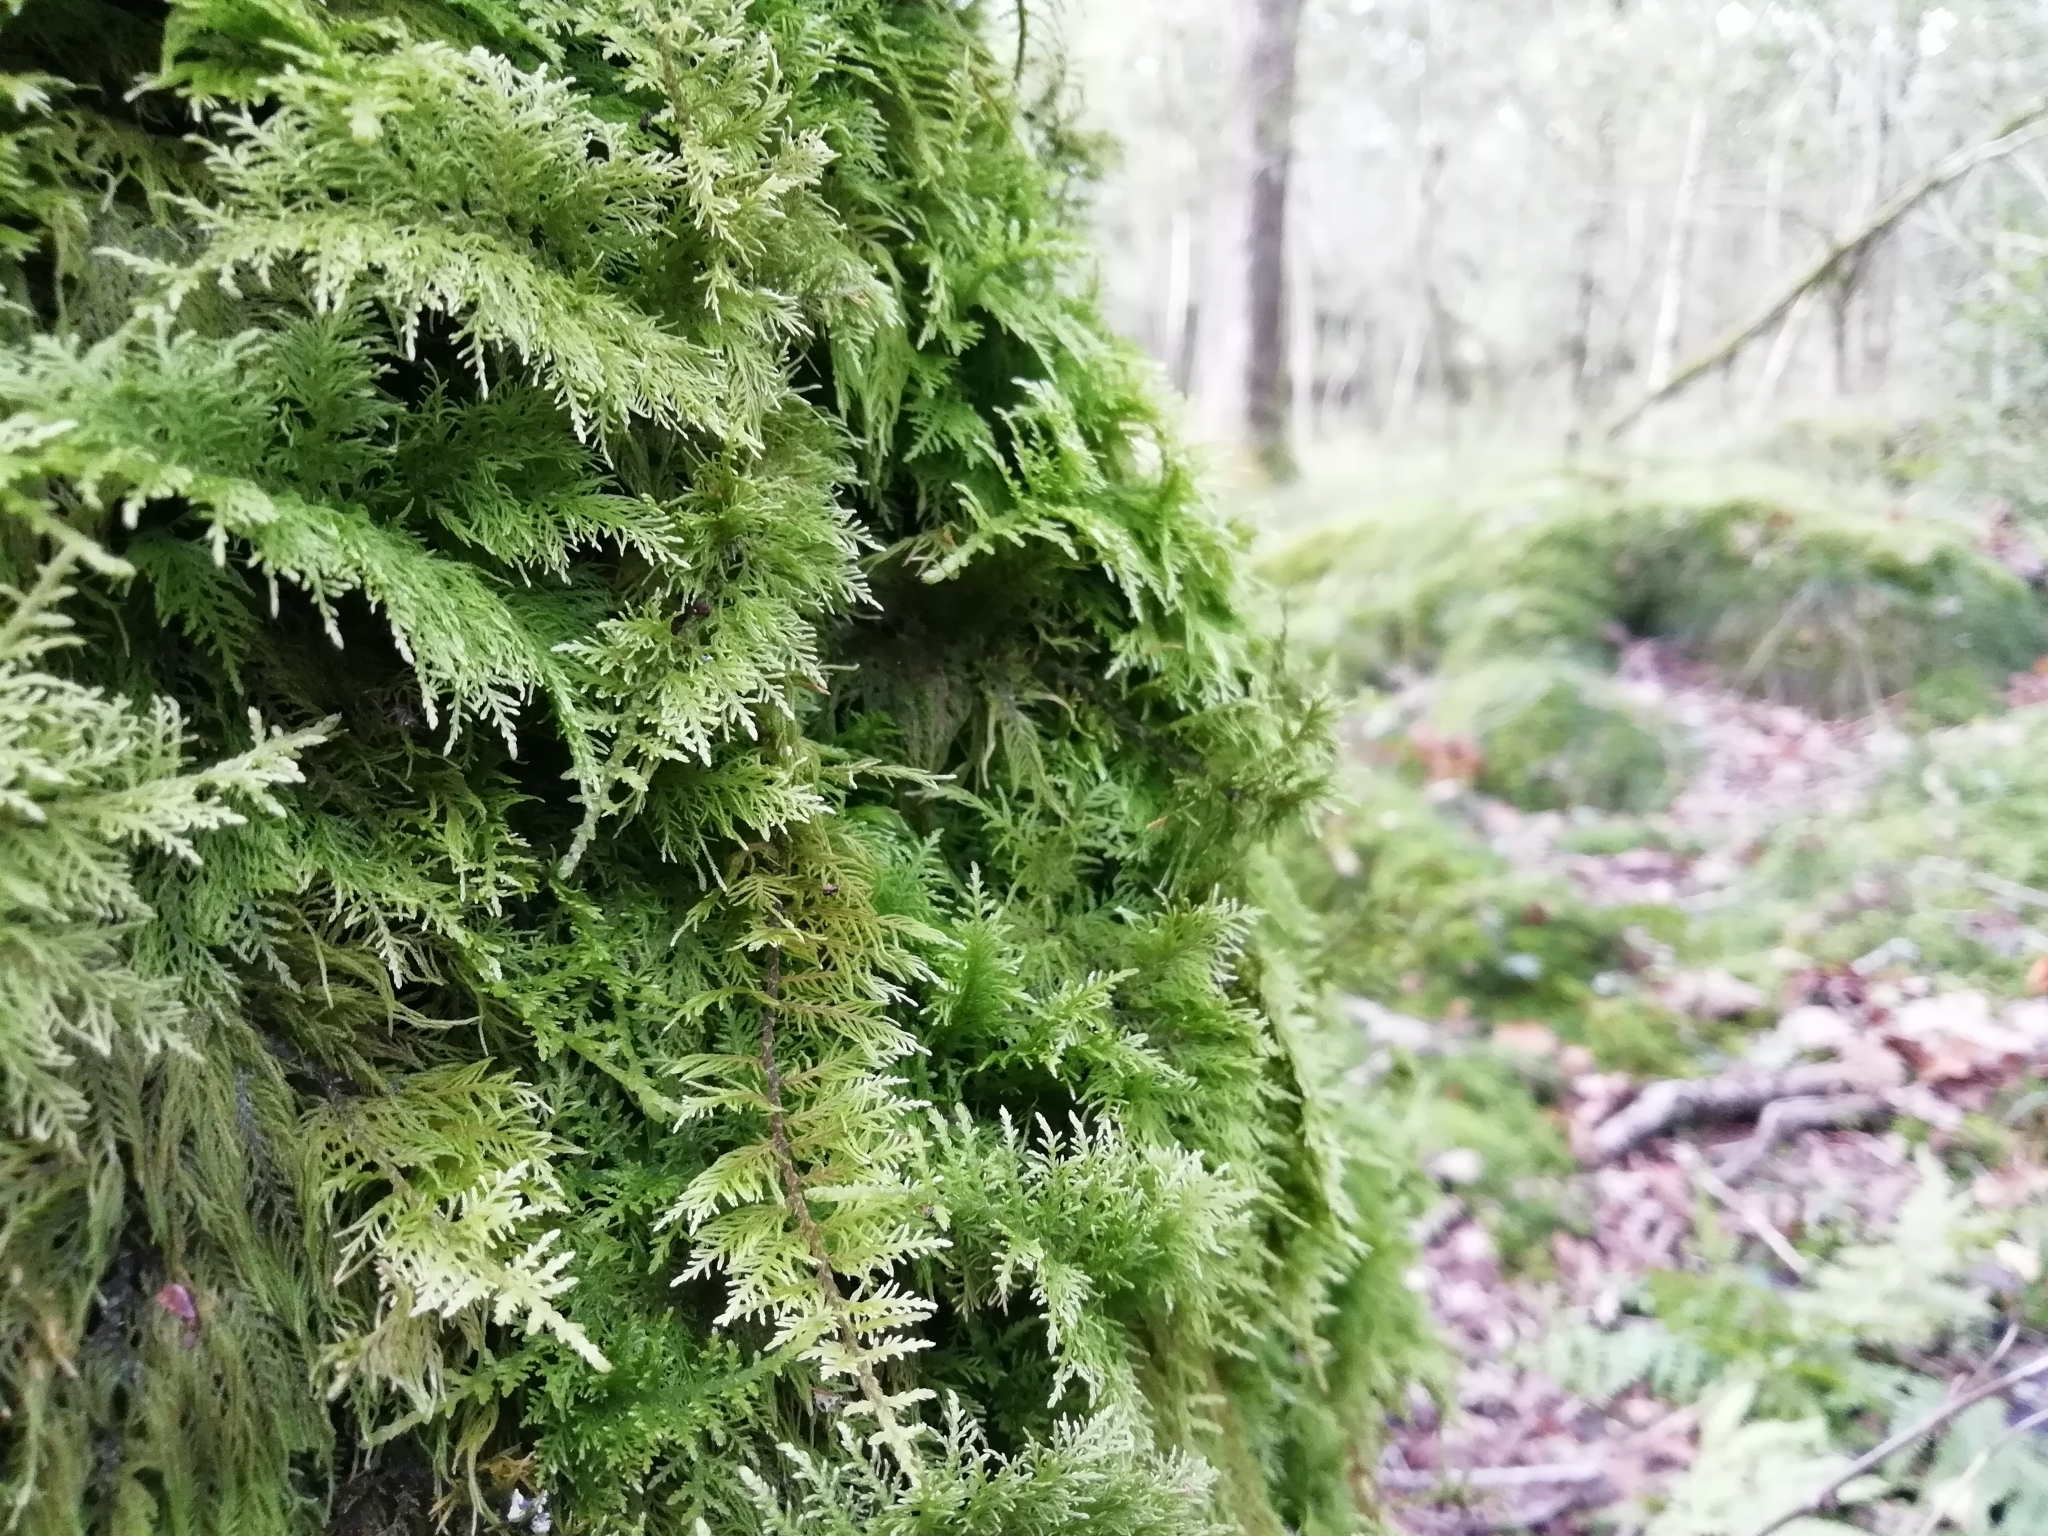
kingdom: Plantae
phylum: Bryophyta
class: Bryopsida
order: Hypnales
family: Thuidiaceae
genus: Thuidium
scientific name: Thuidium tamariscinum
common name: Common tamarisk-moss
